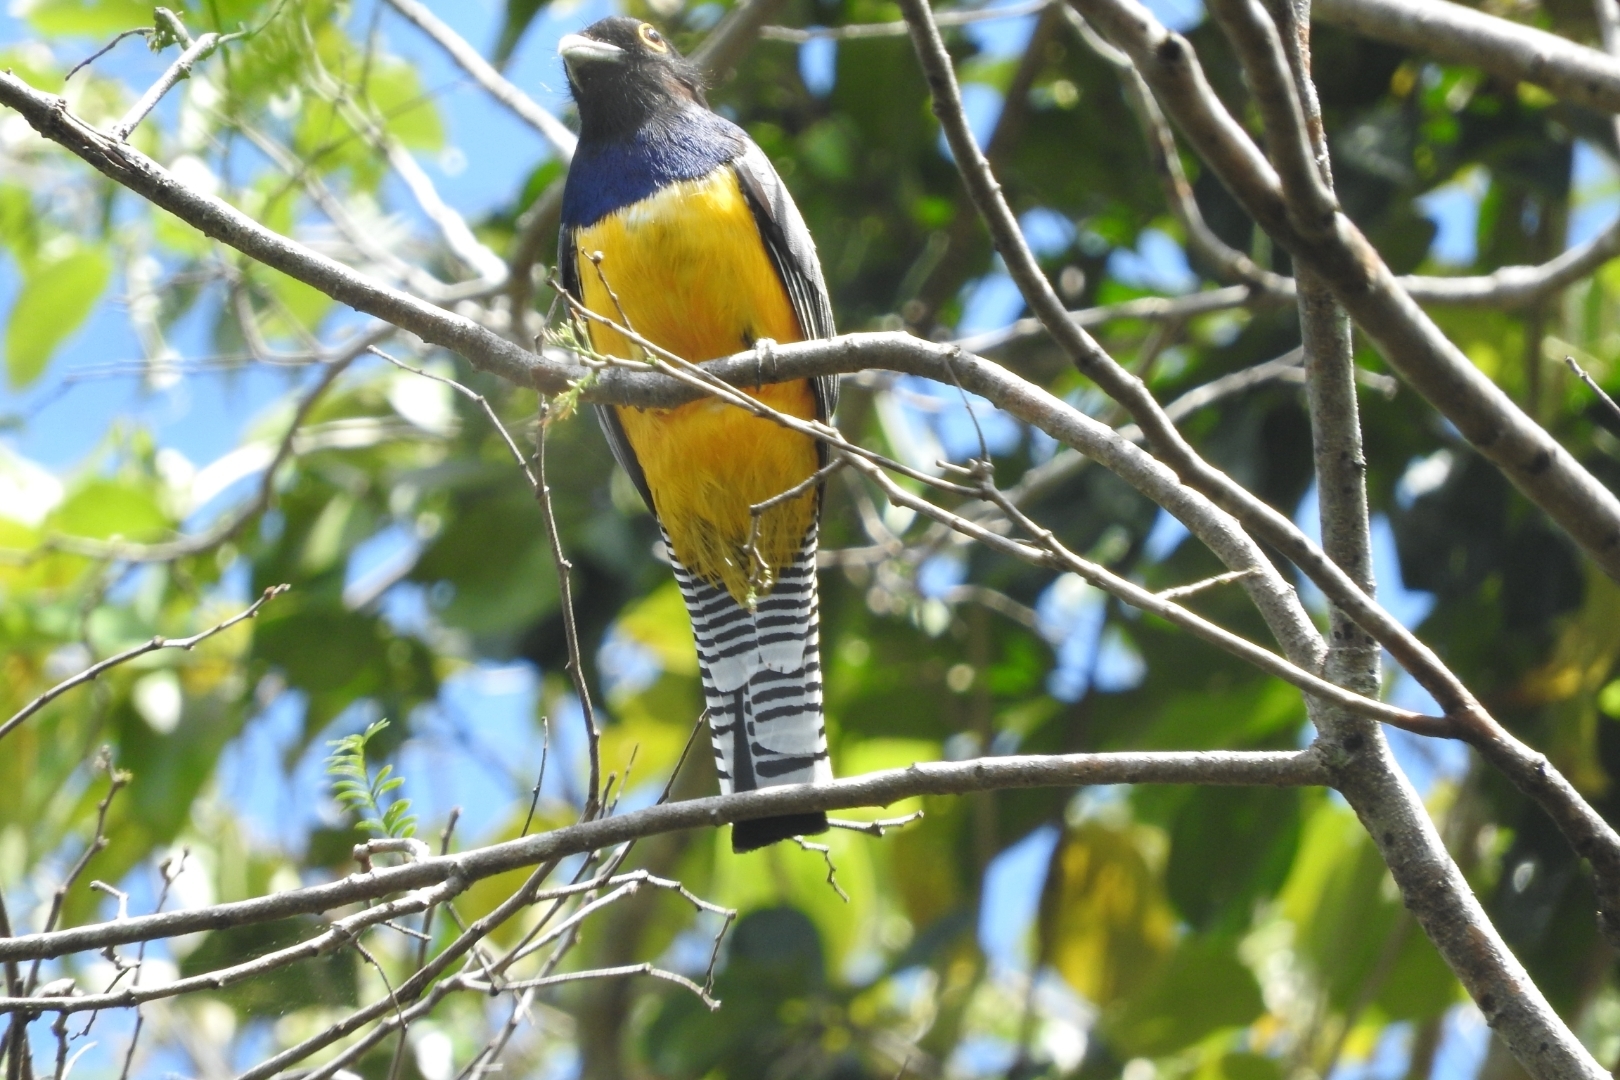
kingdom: Animalia
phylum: Chordata
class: Aves
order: Trogoniformes
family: Trogonidae
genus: Trogon
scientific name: Trogon caligatus
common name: Gartered trogon
